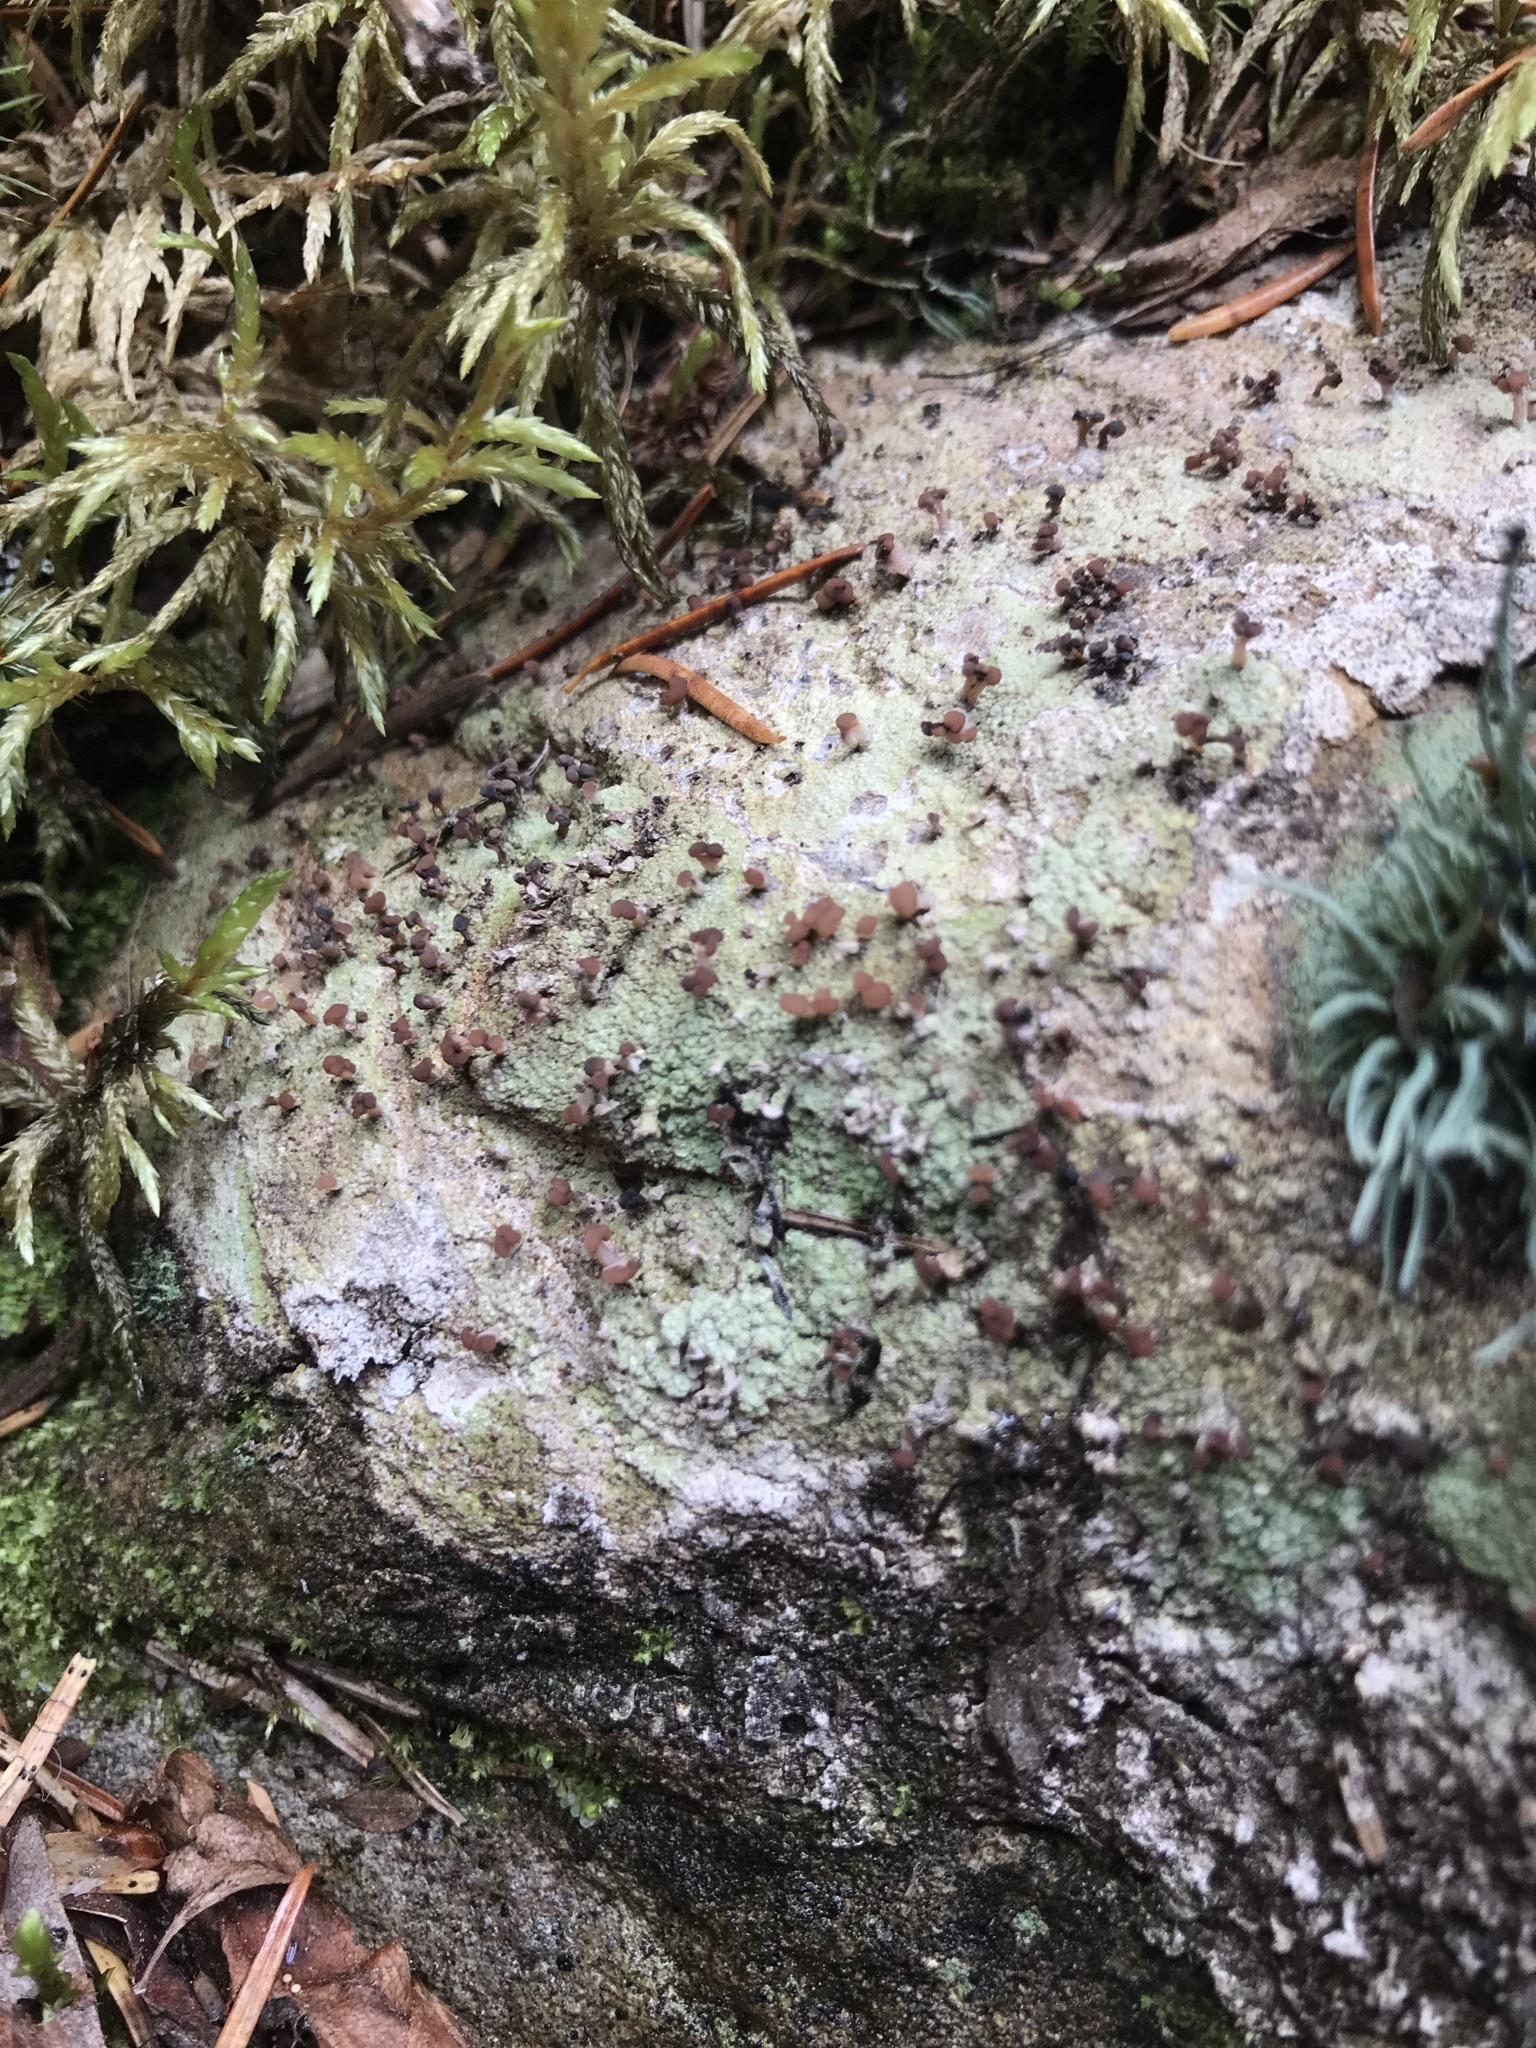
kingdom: Fungi
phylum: Ascomycota
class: Lecanoromycetes
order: Baeomycetales
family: Baeomycetaceae
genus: Baeomyces
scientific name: Baeomyces rufus
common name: Brown beret lichen
